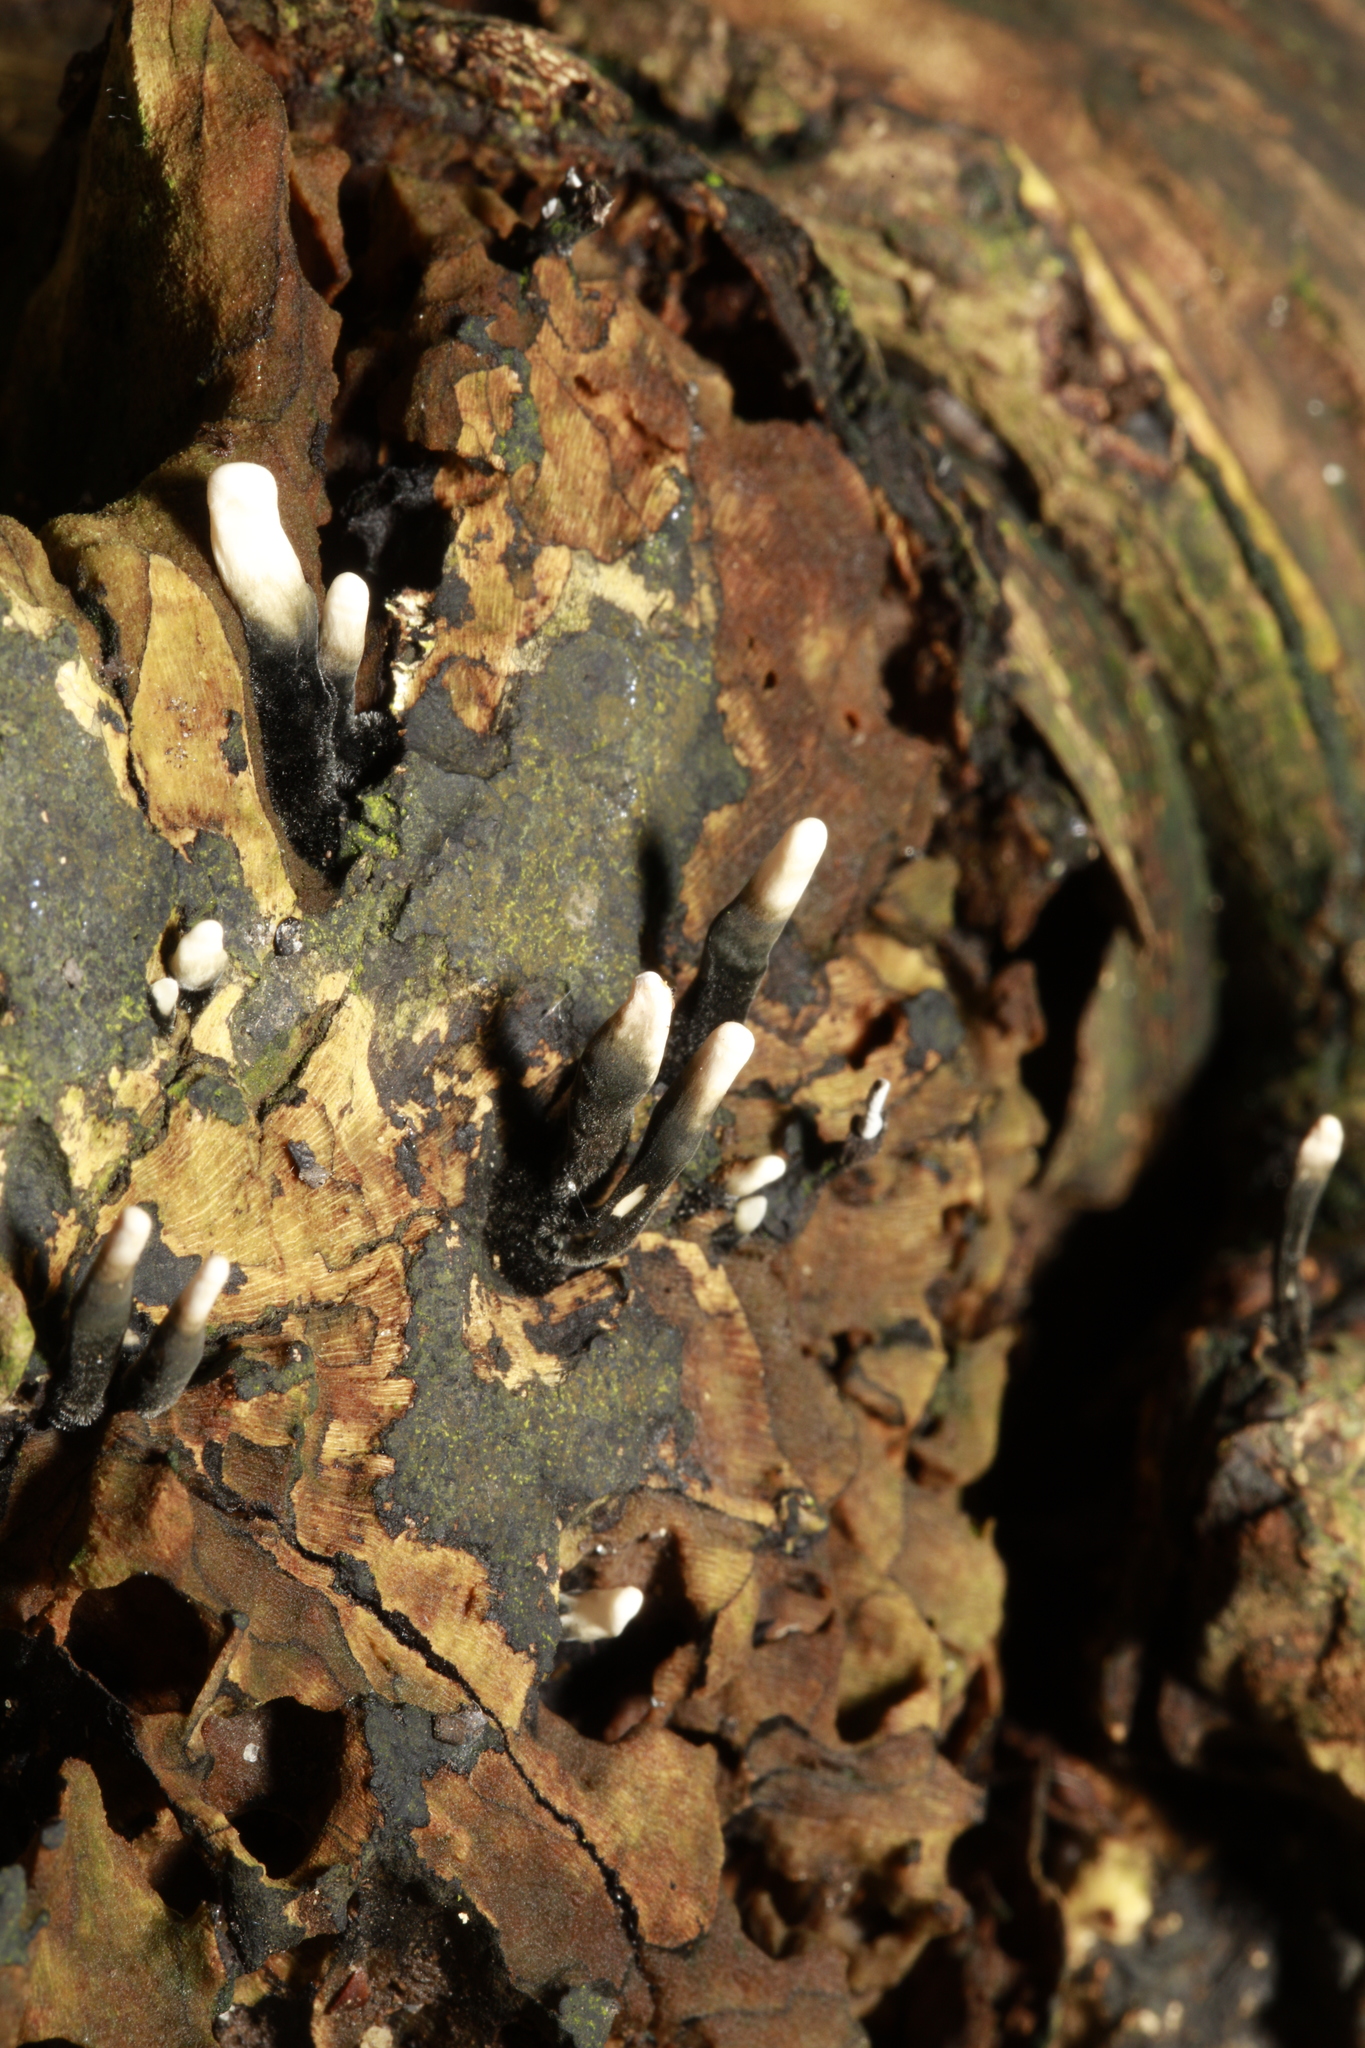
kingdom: Fungi
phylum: Ascomycota
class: Sordariomycetes
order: Xylariales
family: Xylariaceae
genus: Xylaria
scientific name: Xylaria hypoxylon
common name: Candle-snuff fungus
